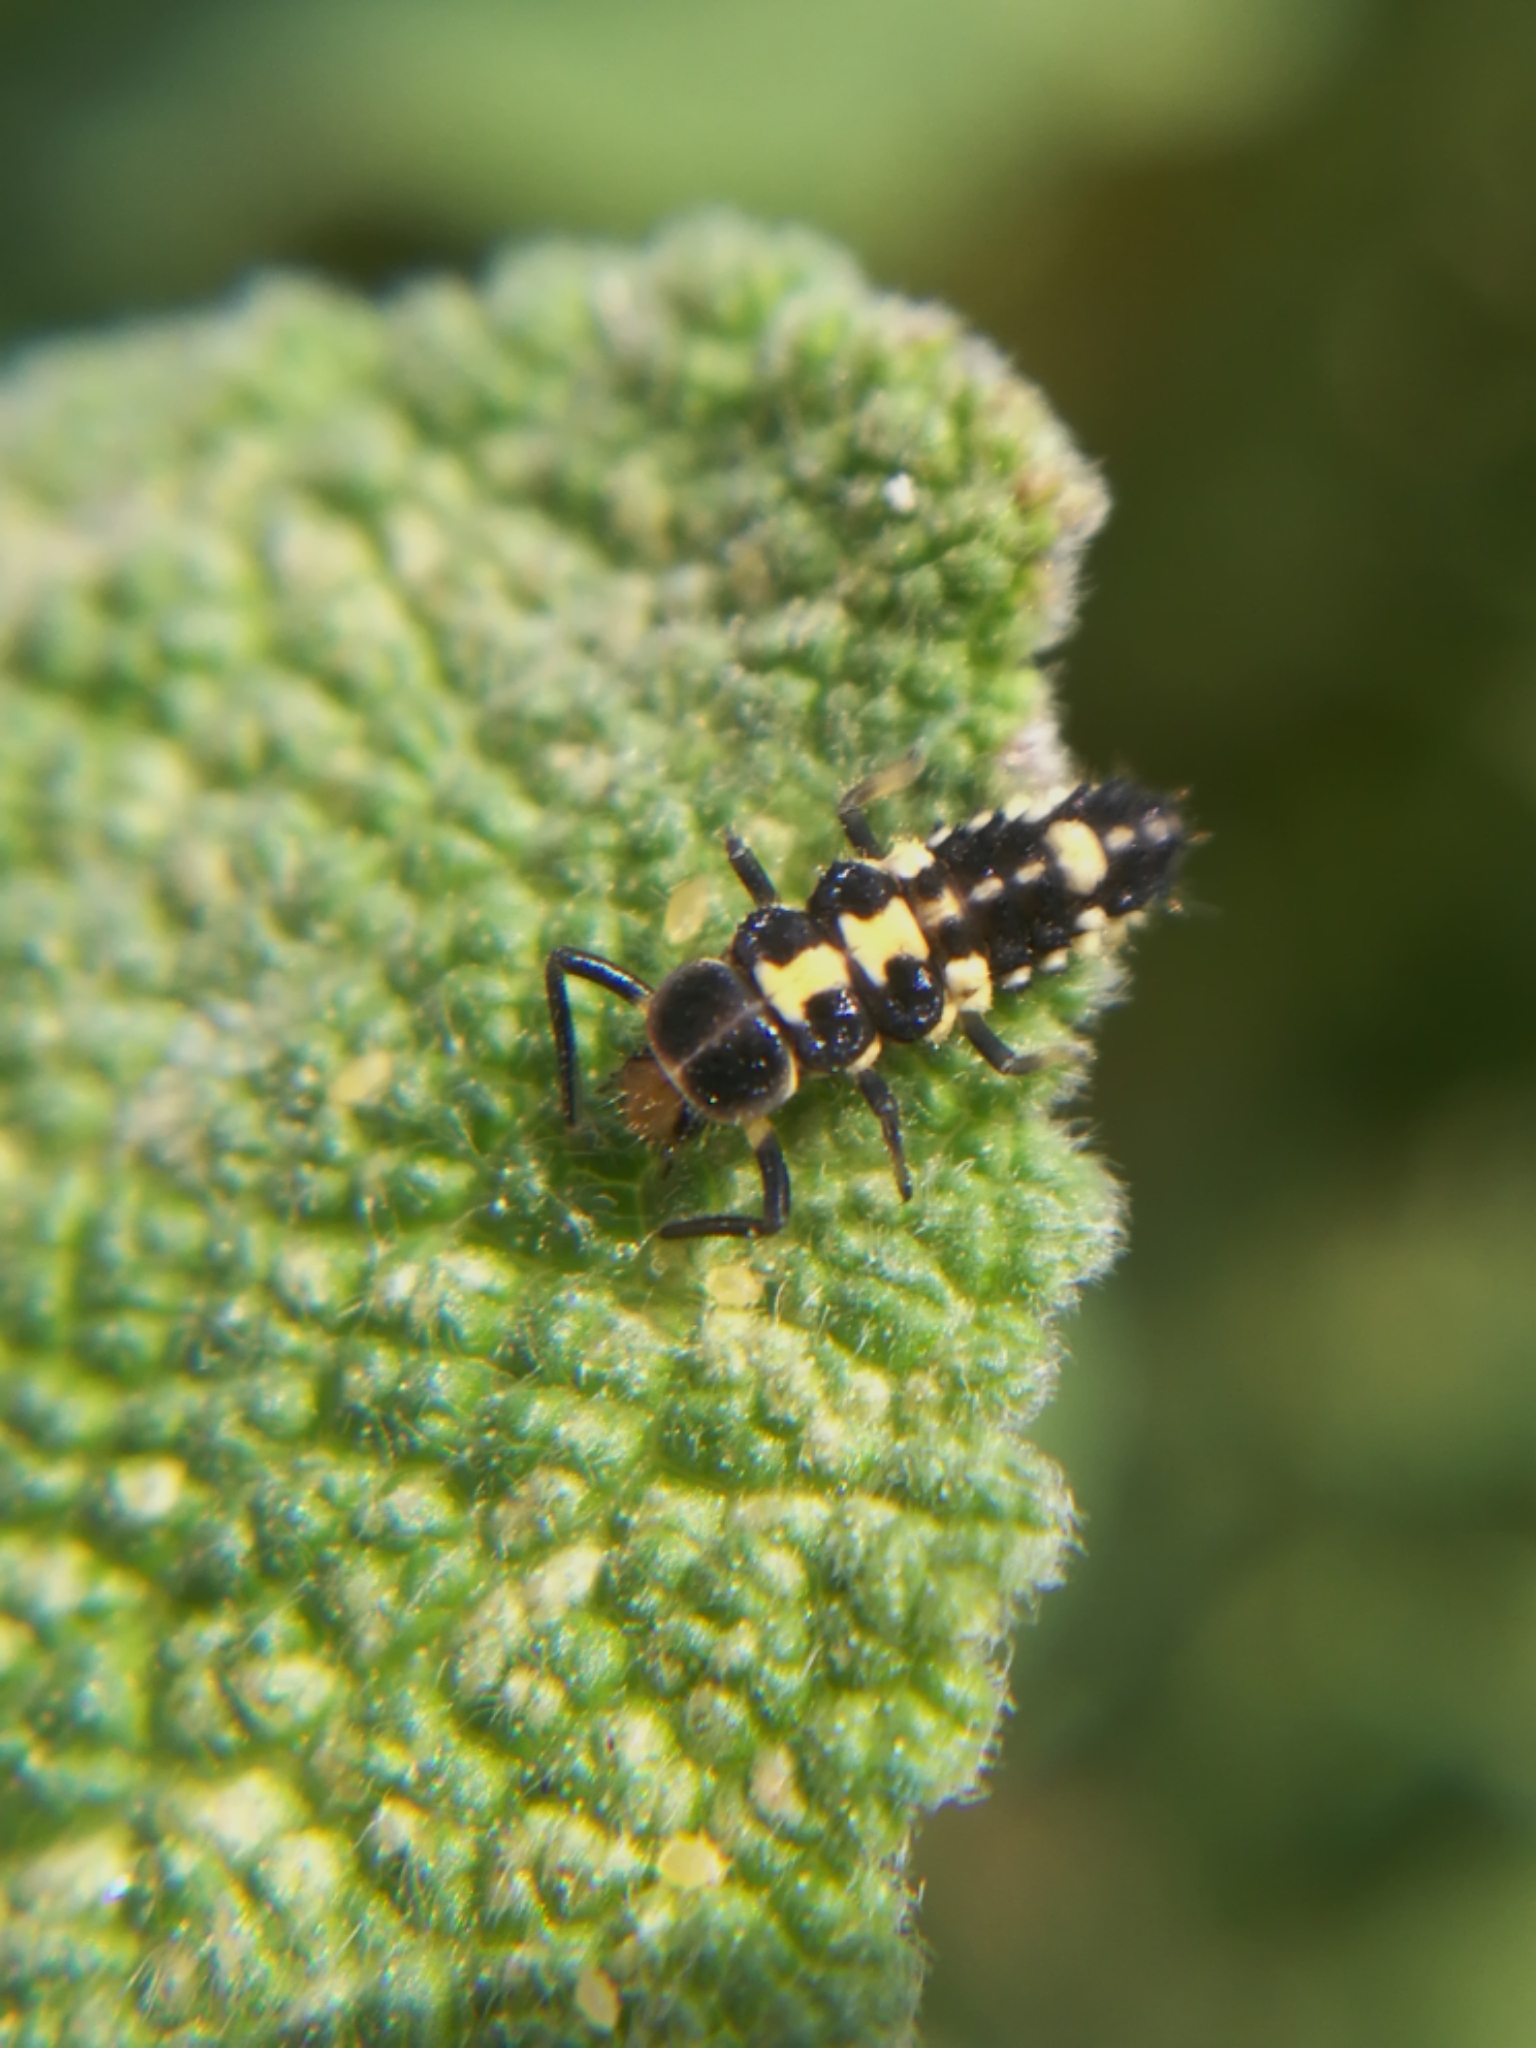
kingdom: Animalia
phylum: Arthropoda
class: Insecta
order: Coleoptera
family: Coccinellidae
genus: Propylaea
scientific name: Propylaea quatuordecimpunctata
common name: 14-spotted ladybird beetle
